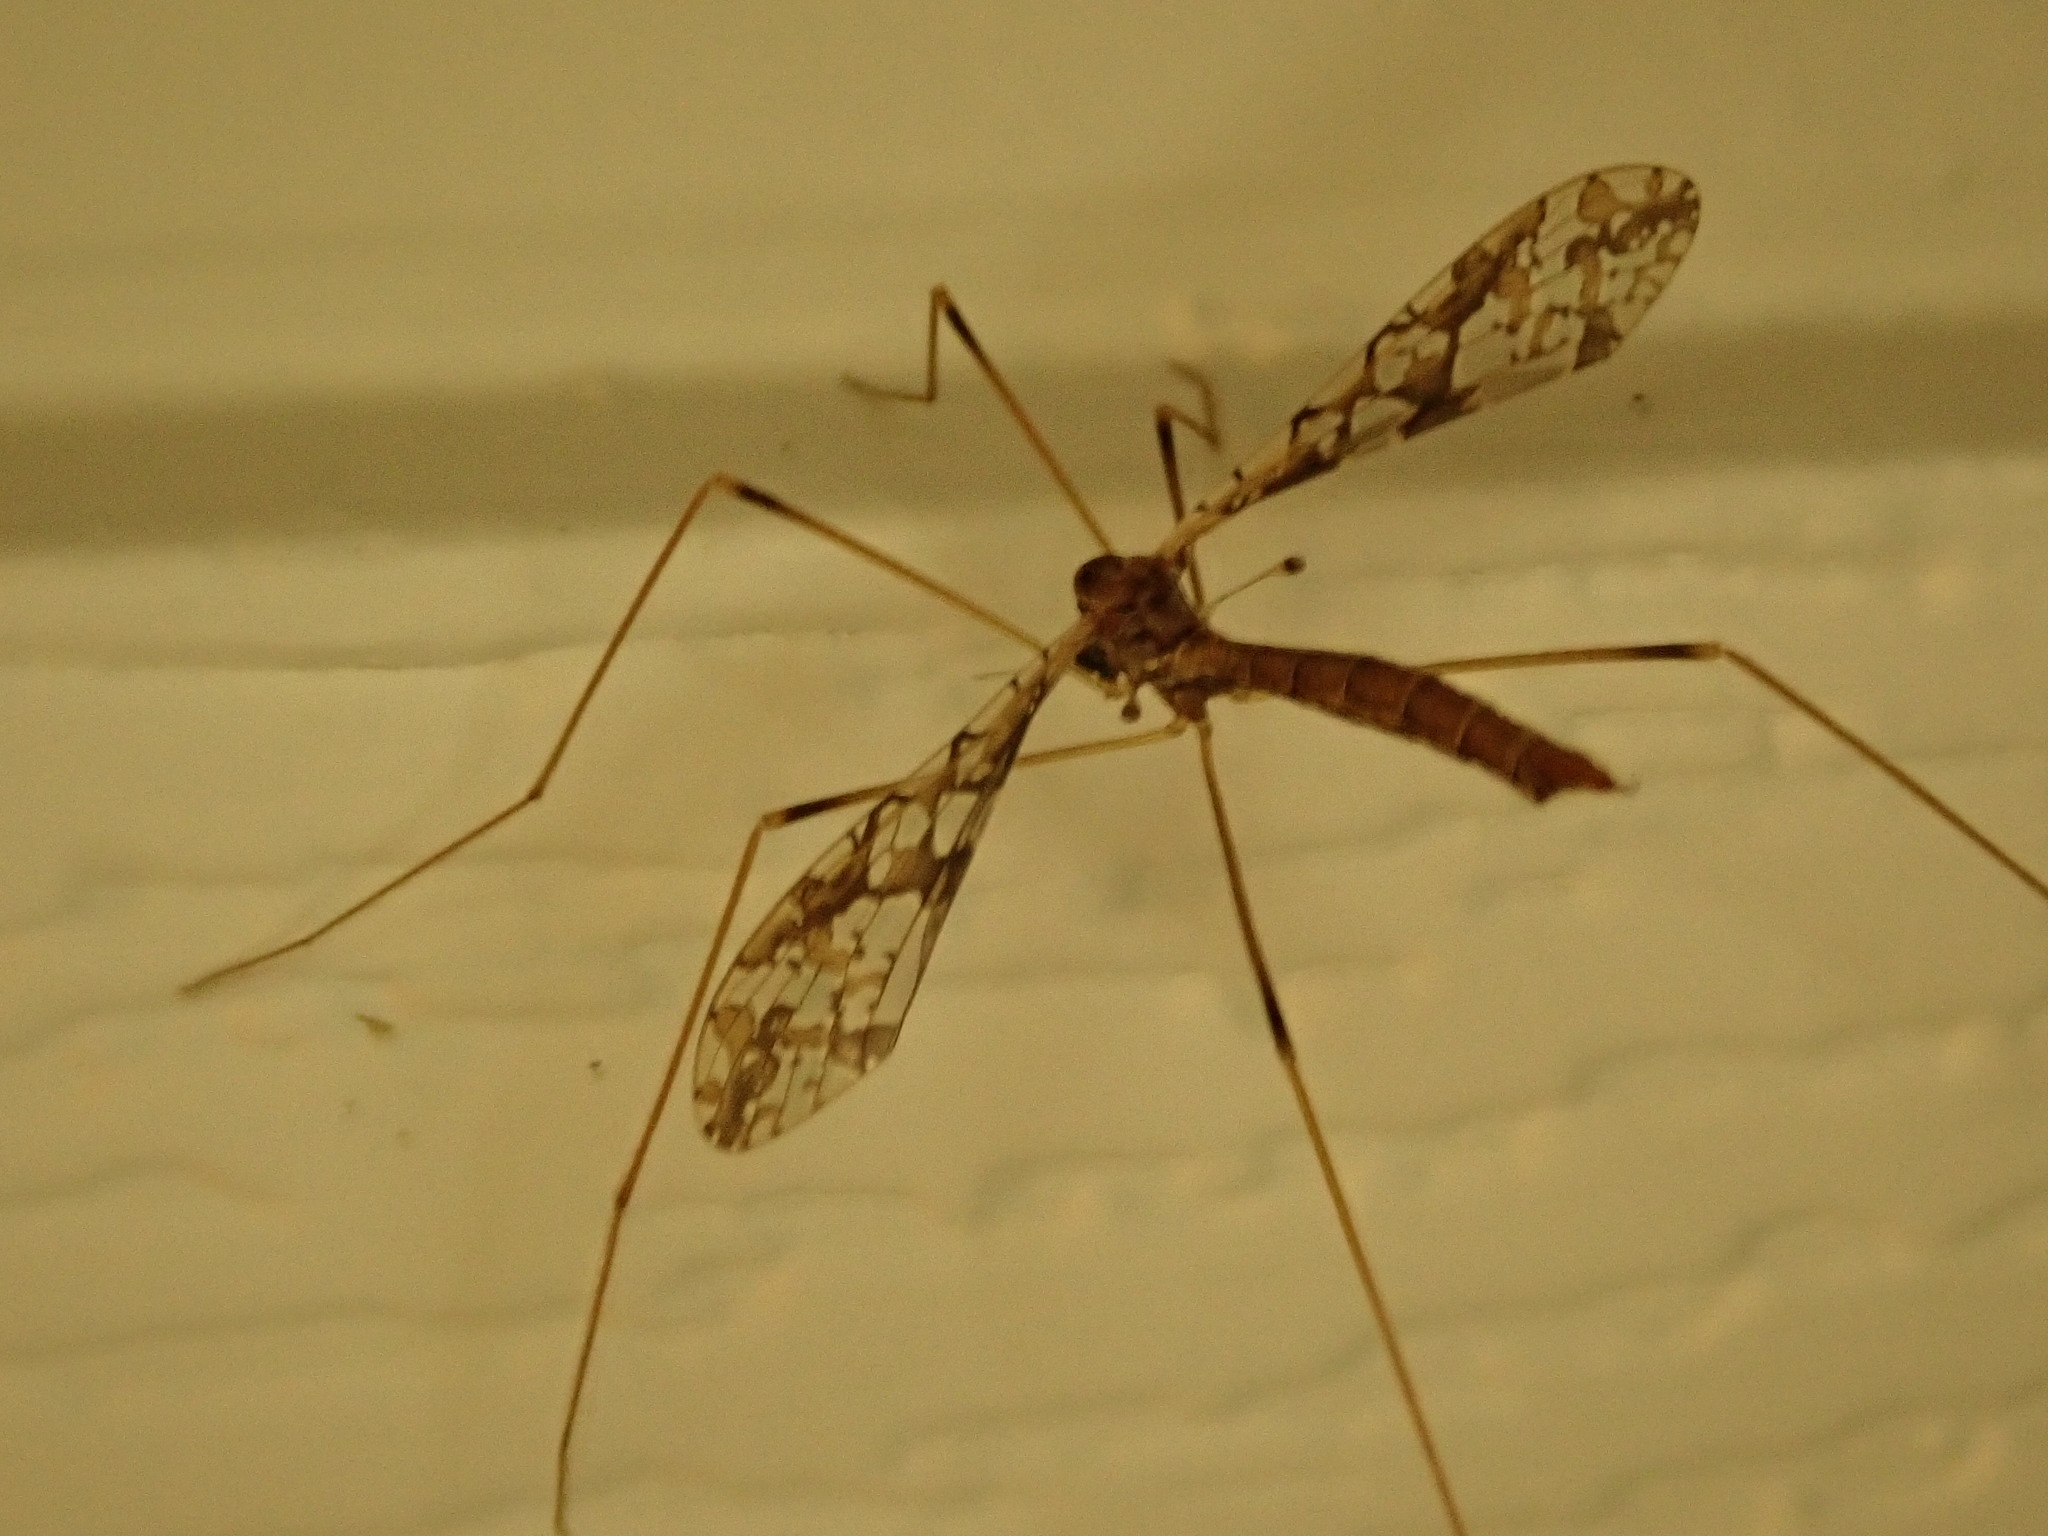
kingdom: Animalia
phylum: Arthropoda
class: Insecta
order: Diptera
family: Limoniidae
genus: Epiphragma
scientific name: Epiphragma solatrix
